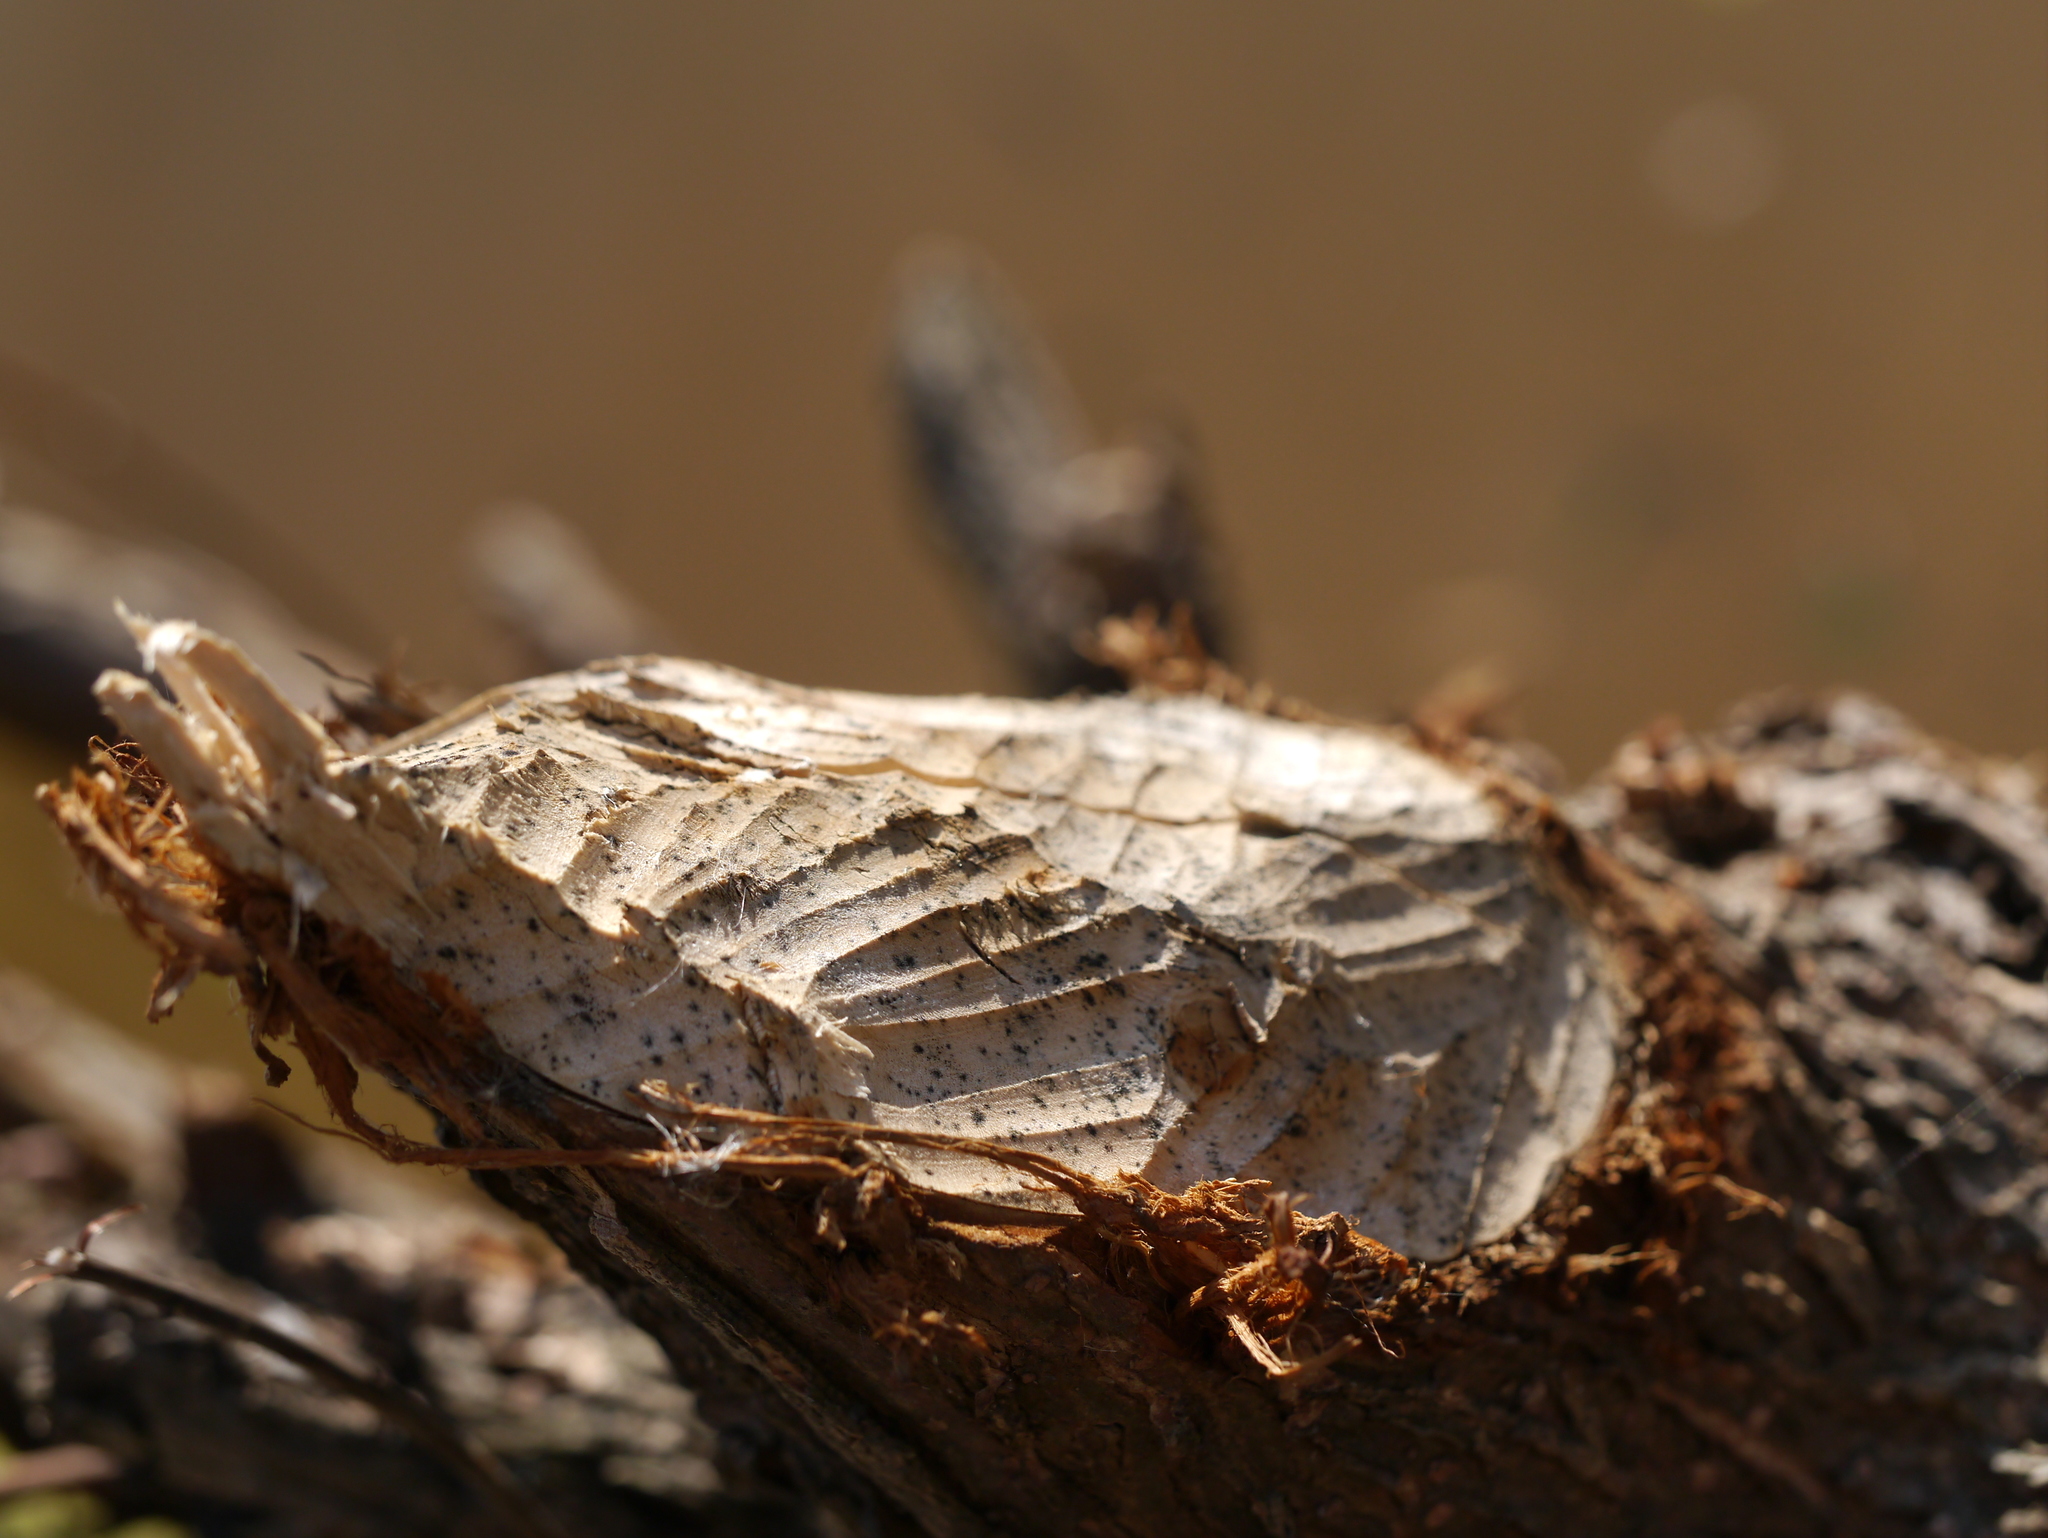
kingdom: Animalia
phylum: Chordata
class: Mammalia
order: Rodentia
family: Castoridae
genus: Castor
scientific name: Castor canadensis
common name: American beaver
